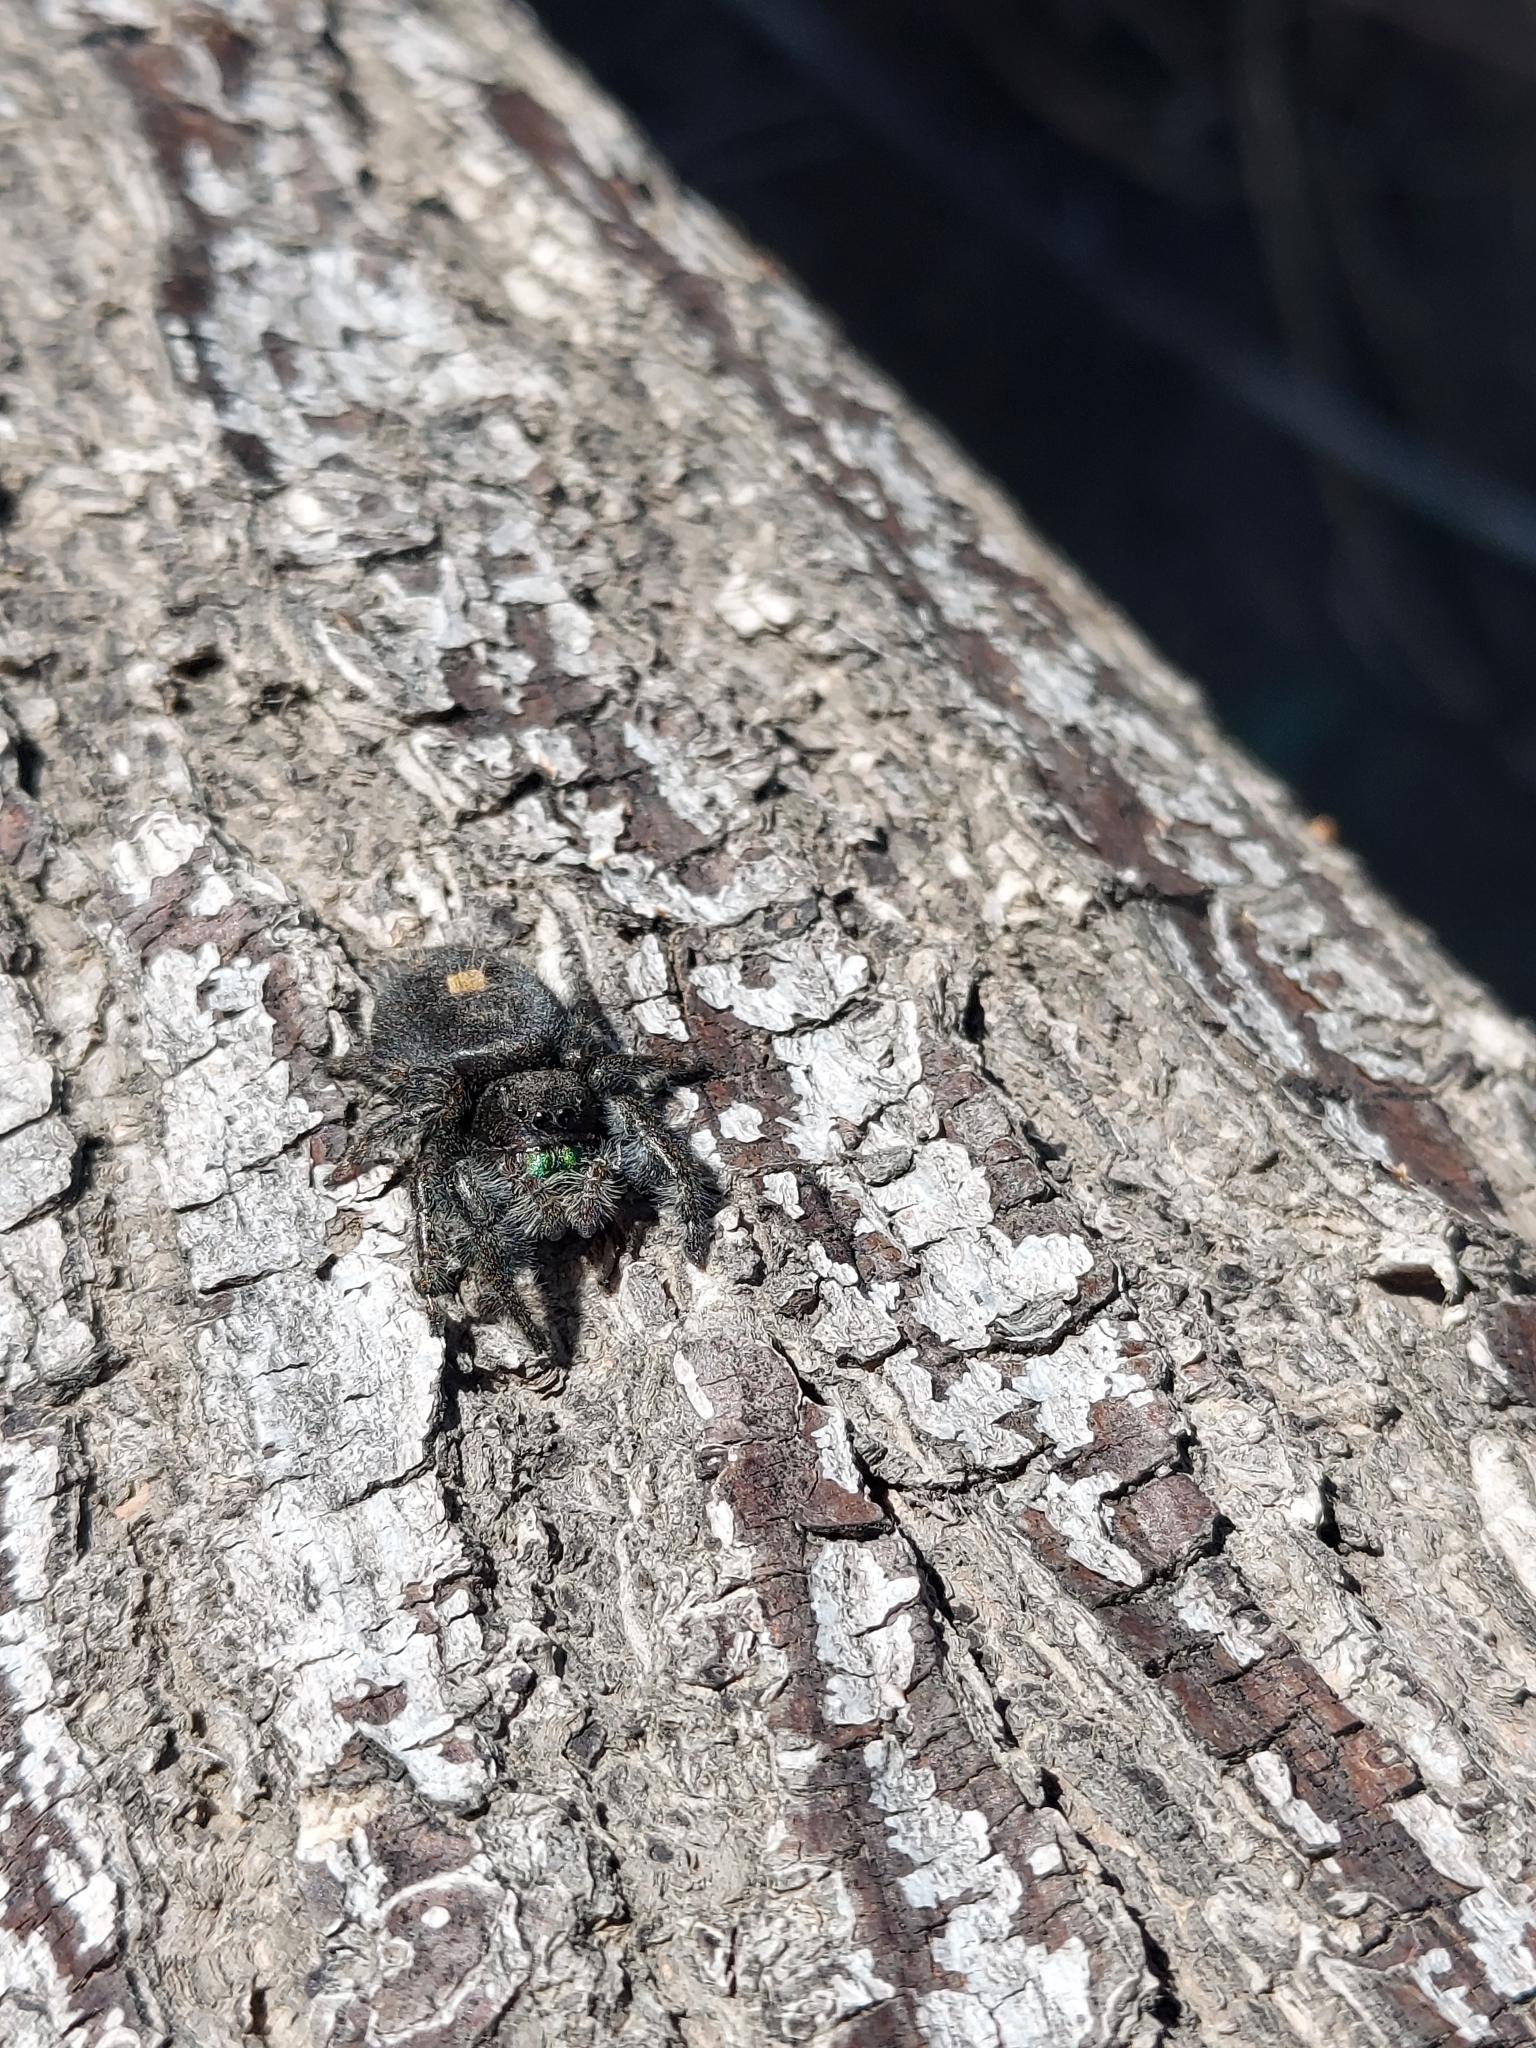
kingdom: Animalia
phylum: Arthropoda
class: Arachnida
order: Araneae
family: Salticidae
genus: Phidippus
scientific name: Phidippus audax
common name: Bold jumper
